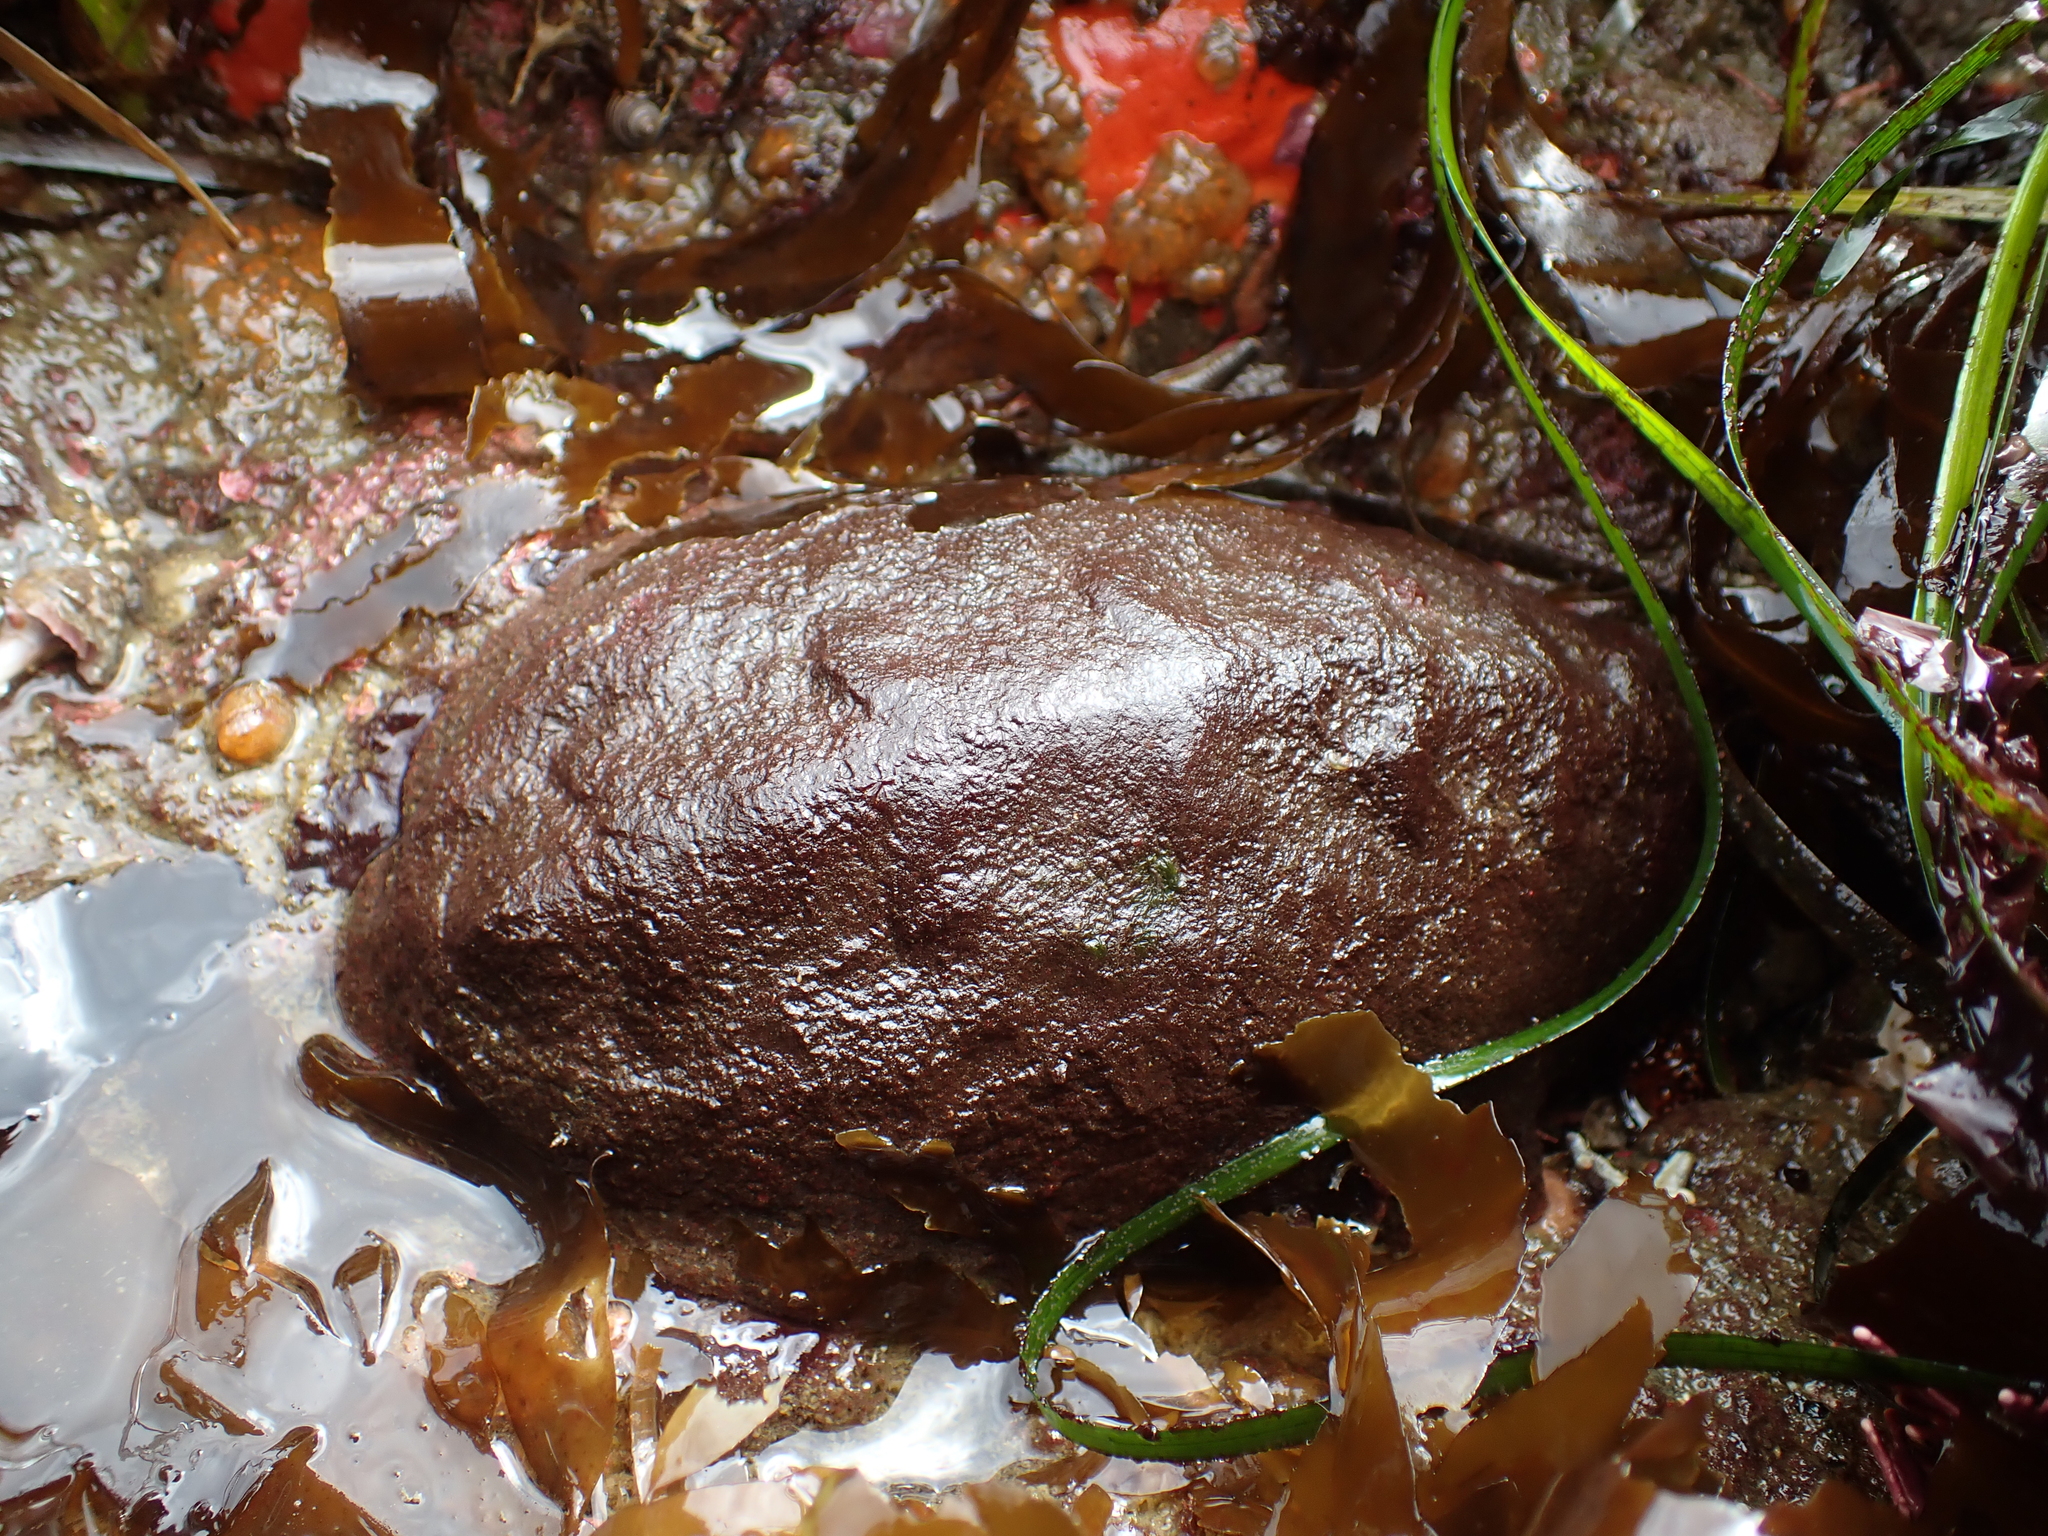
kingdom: Animalia
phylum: Mollusca
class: Polyplacophora
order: Chitonida
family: Acanthochitonidae
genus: Cryptochiton
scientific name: Cryptochiton stelleri
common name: Giant pacific chiton
